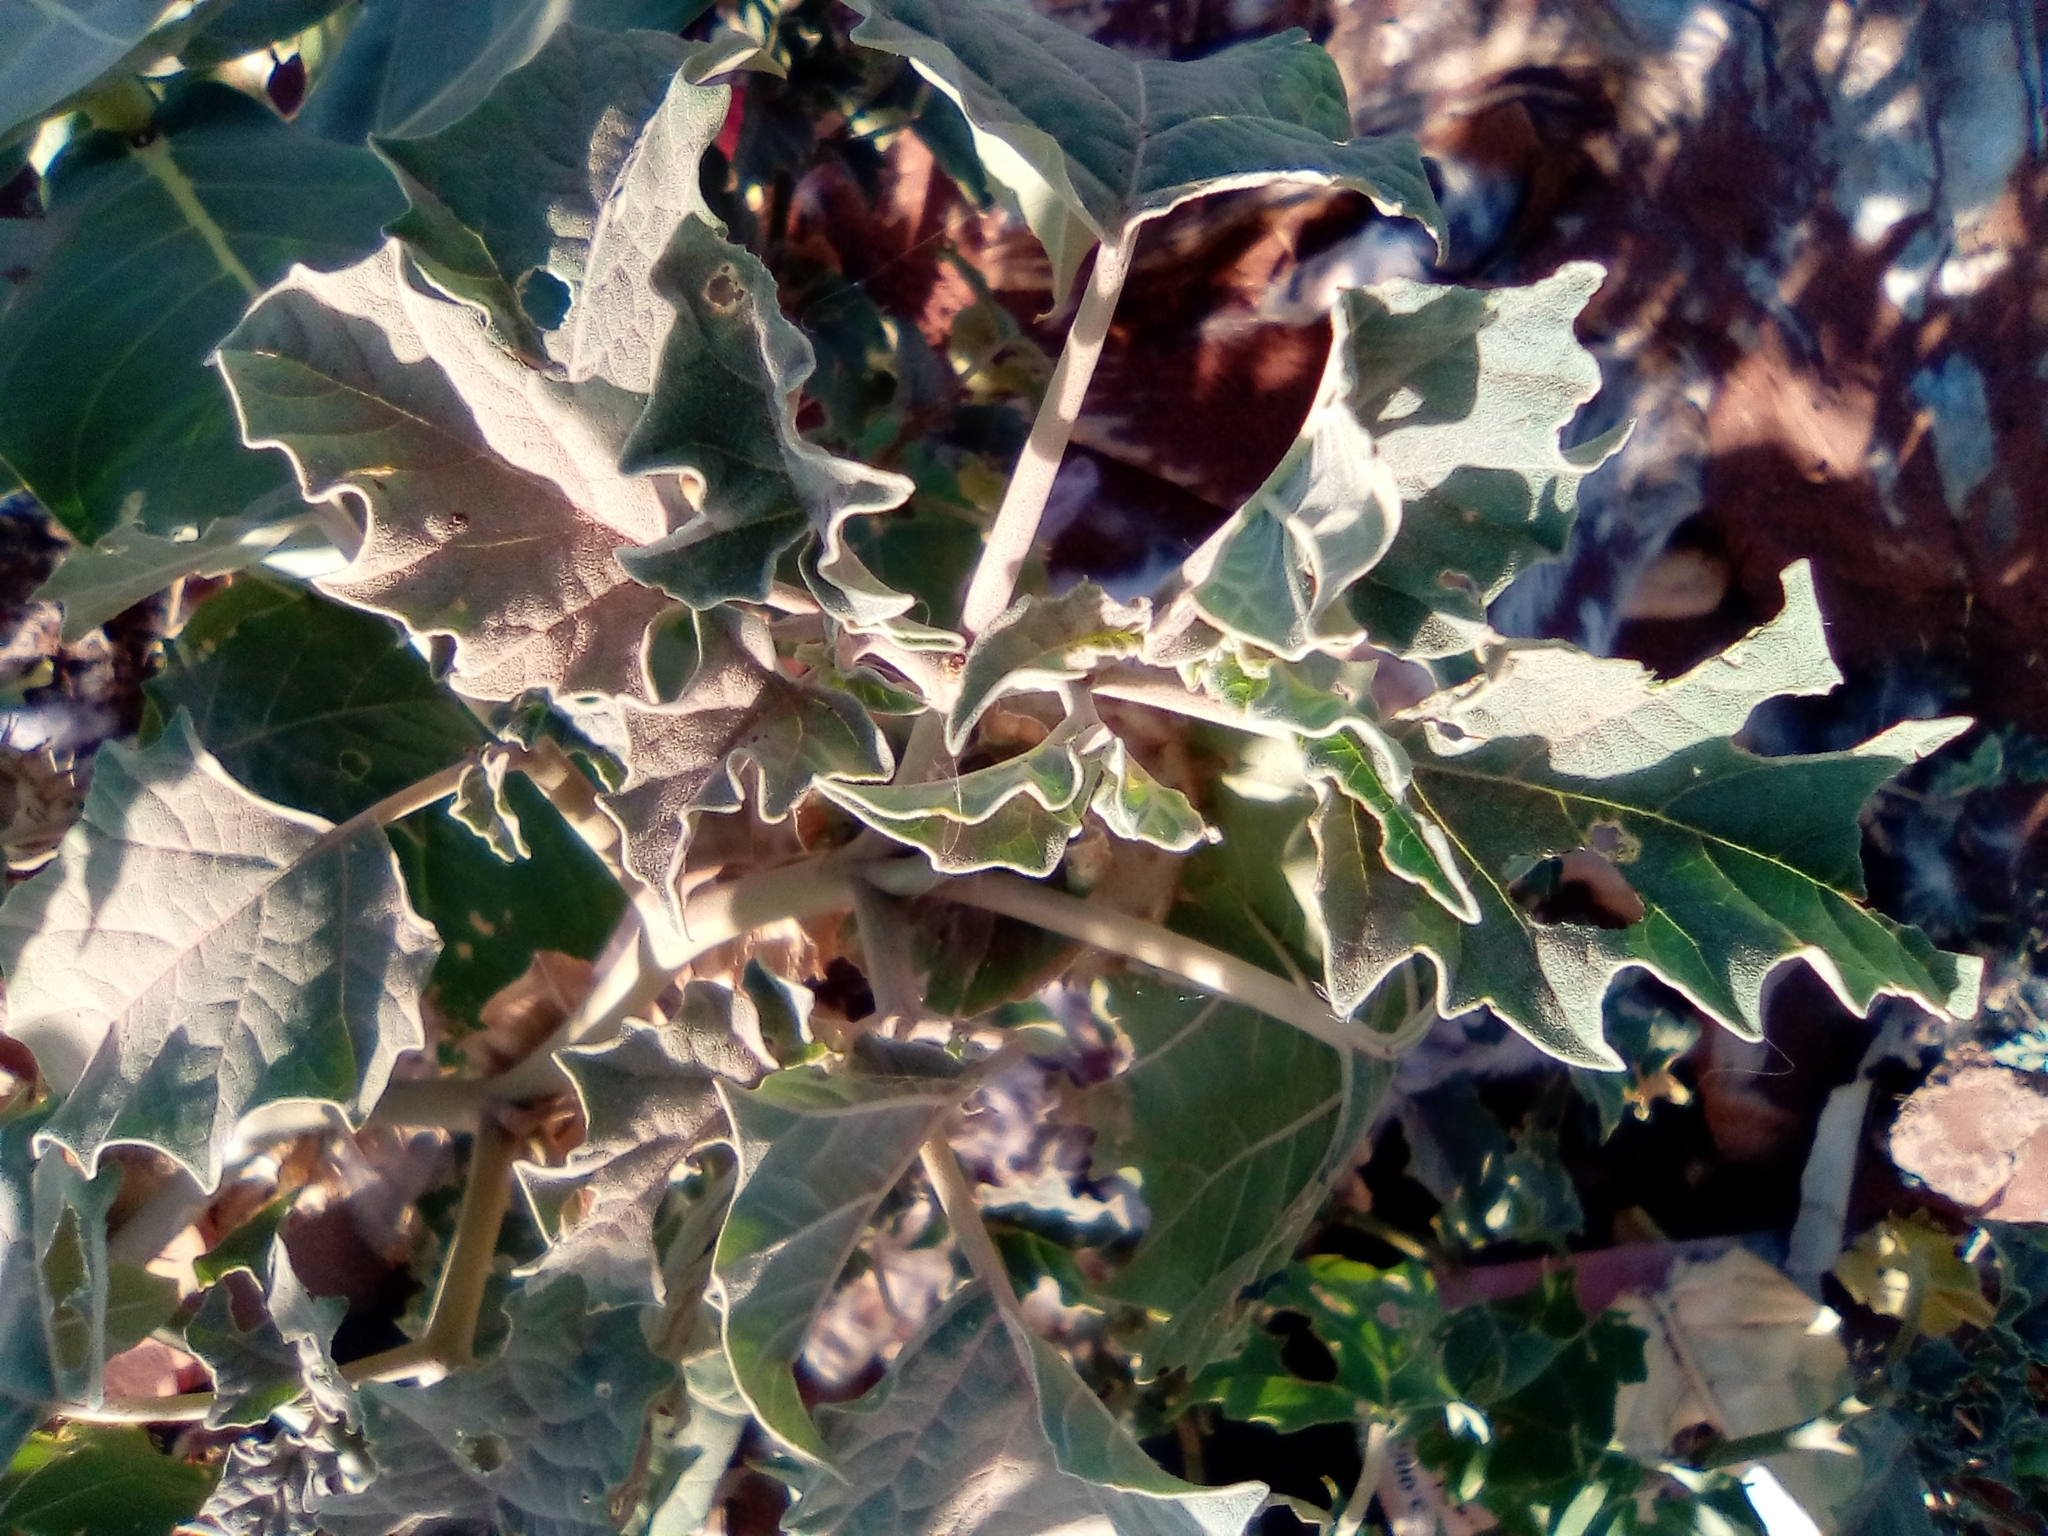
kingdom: Plantae
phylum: Tracheophyta
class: Magnoliopsida
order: Solanales
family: Solanaceae
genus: Datura
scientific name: Datura discolor
